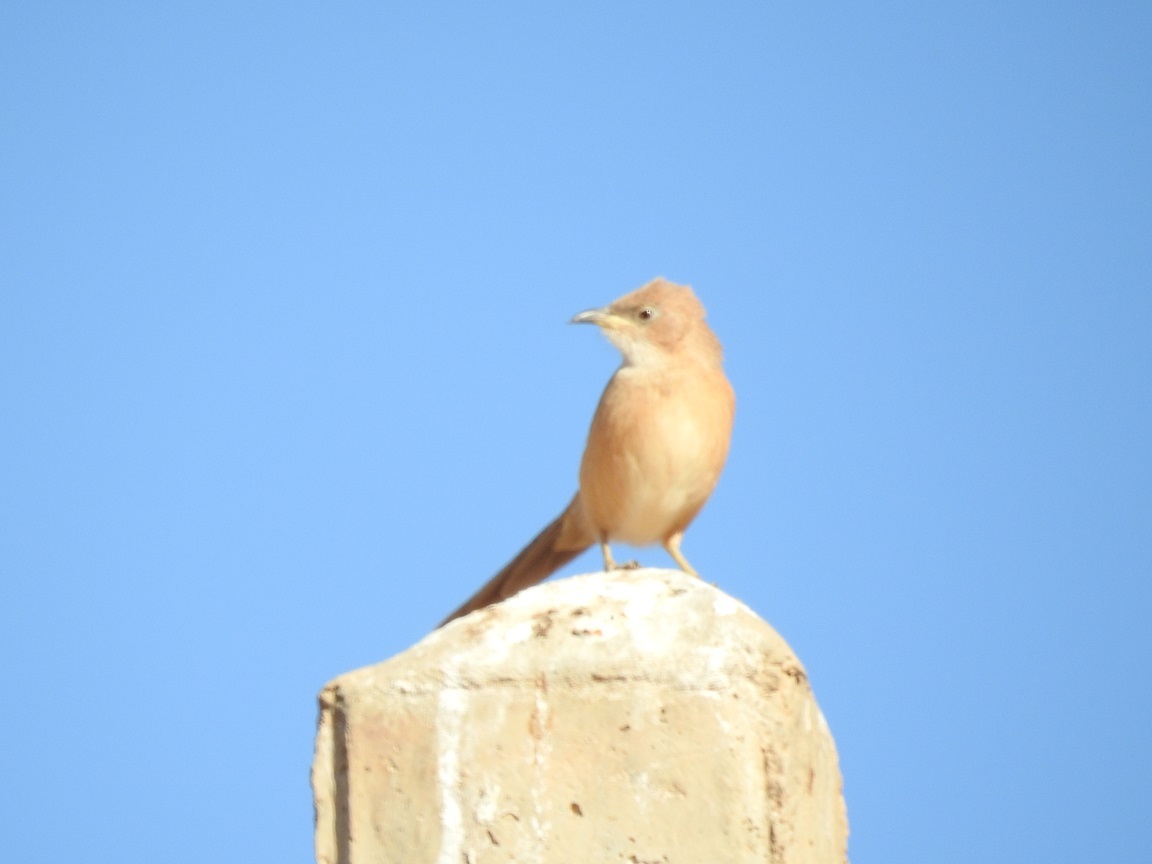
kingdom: Animalia
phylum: Chordata
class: Aves
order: Passeriformes
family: Leiothrichidae
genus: Turdoides
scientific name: Turdoides fulva
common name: Fulvous babbler
